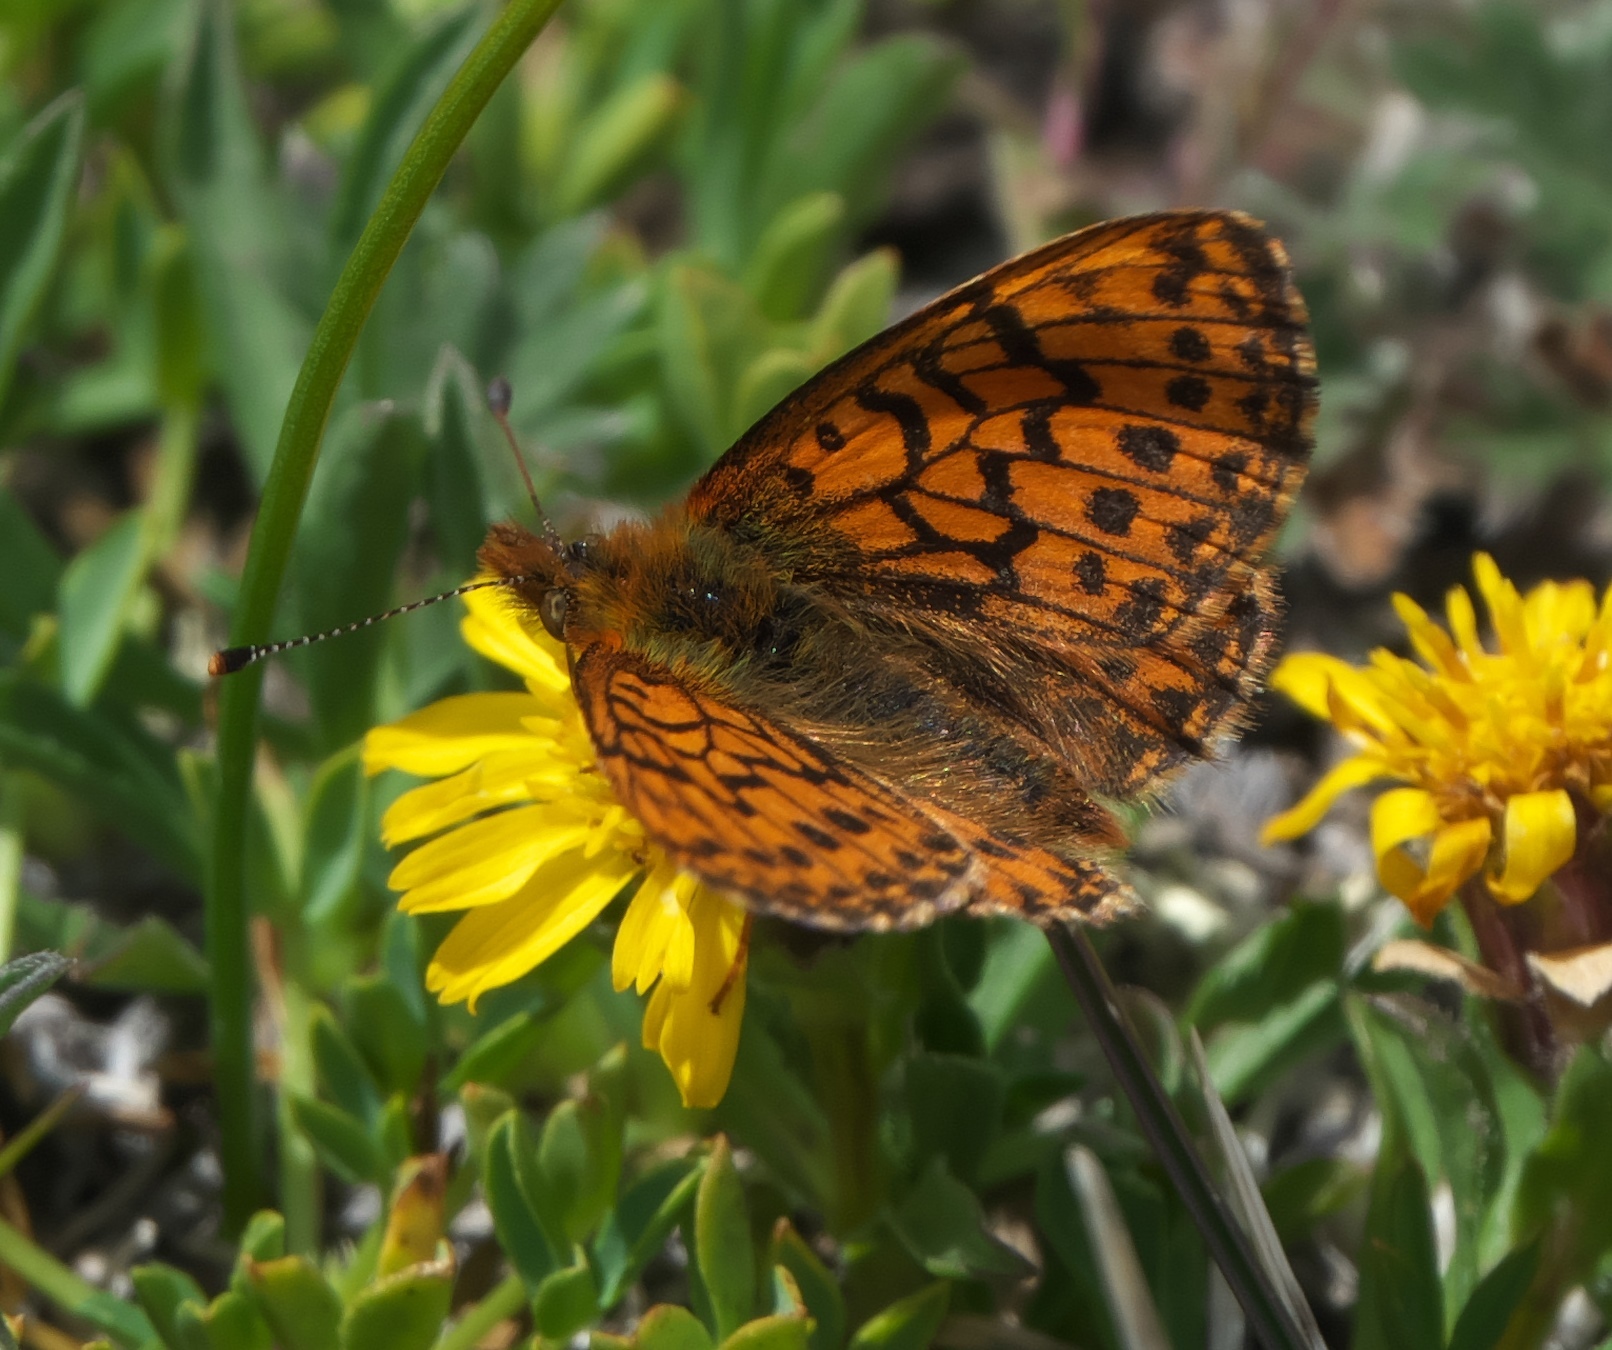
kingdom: Animalia
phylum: Arthropoda
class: Insecta
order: Lepidoptera
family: Nymphalidae
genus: Boloria
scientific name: Boloria chariclea
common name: Arctic fritillary
